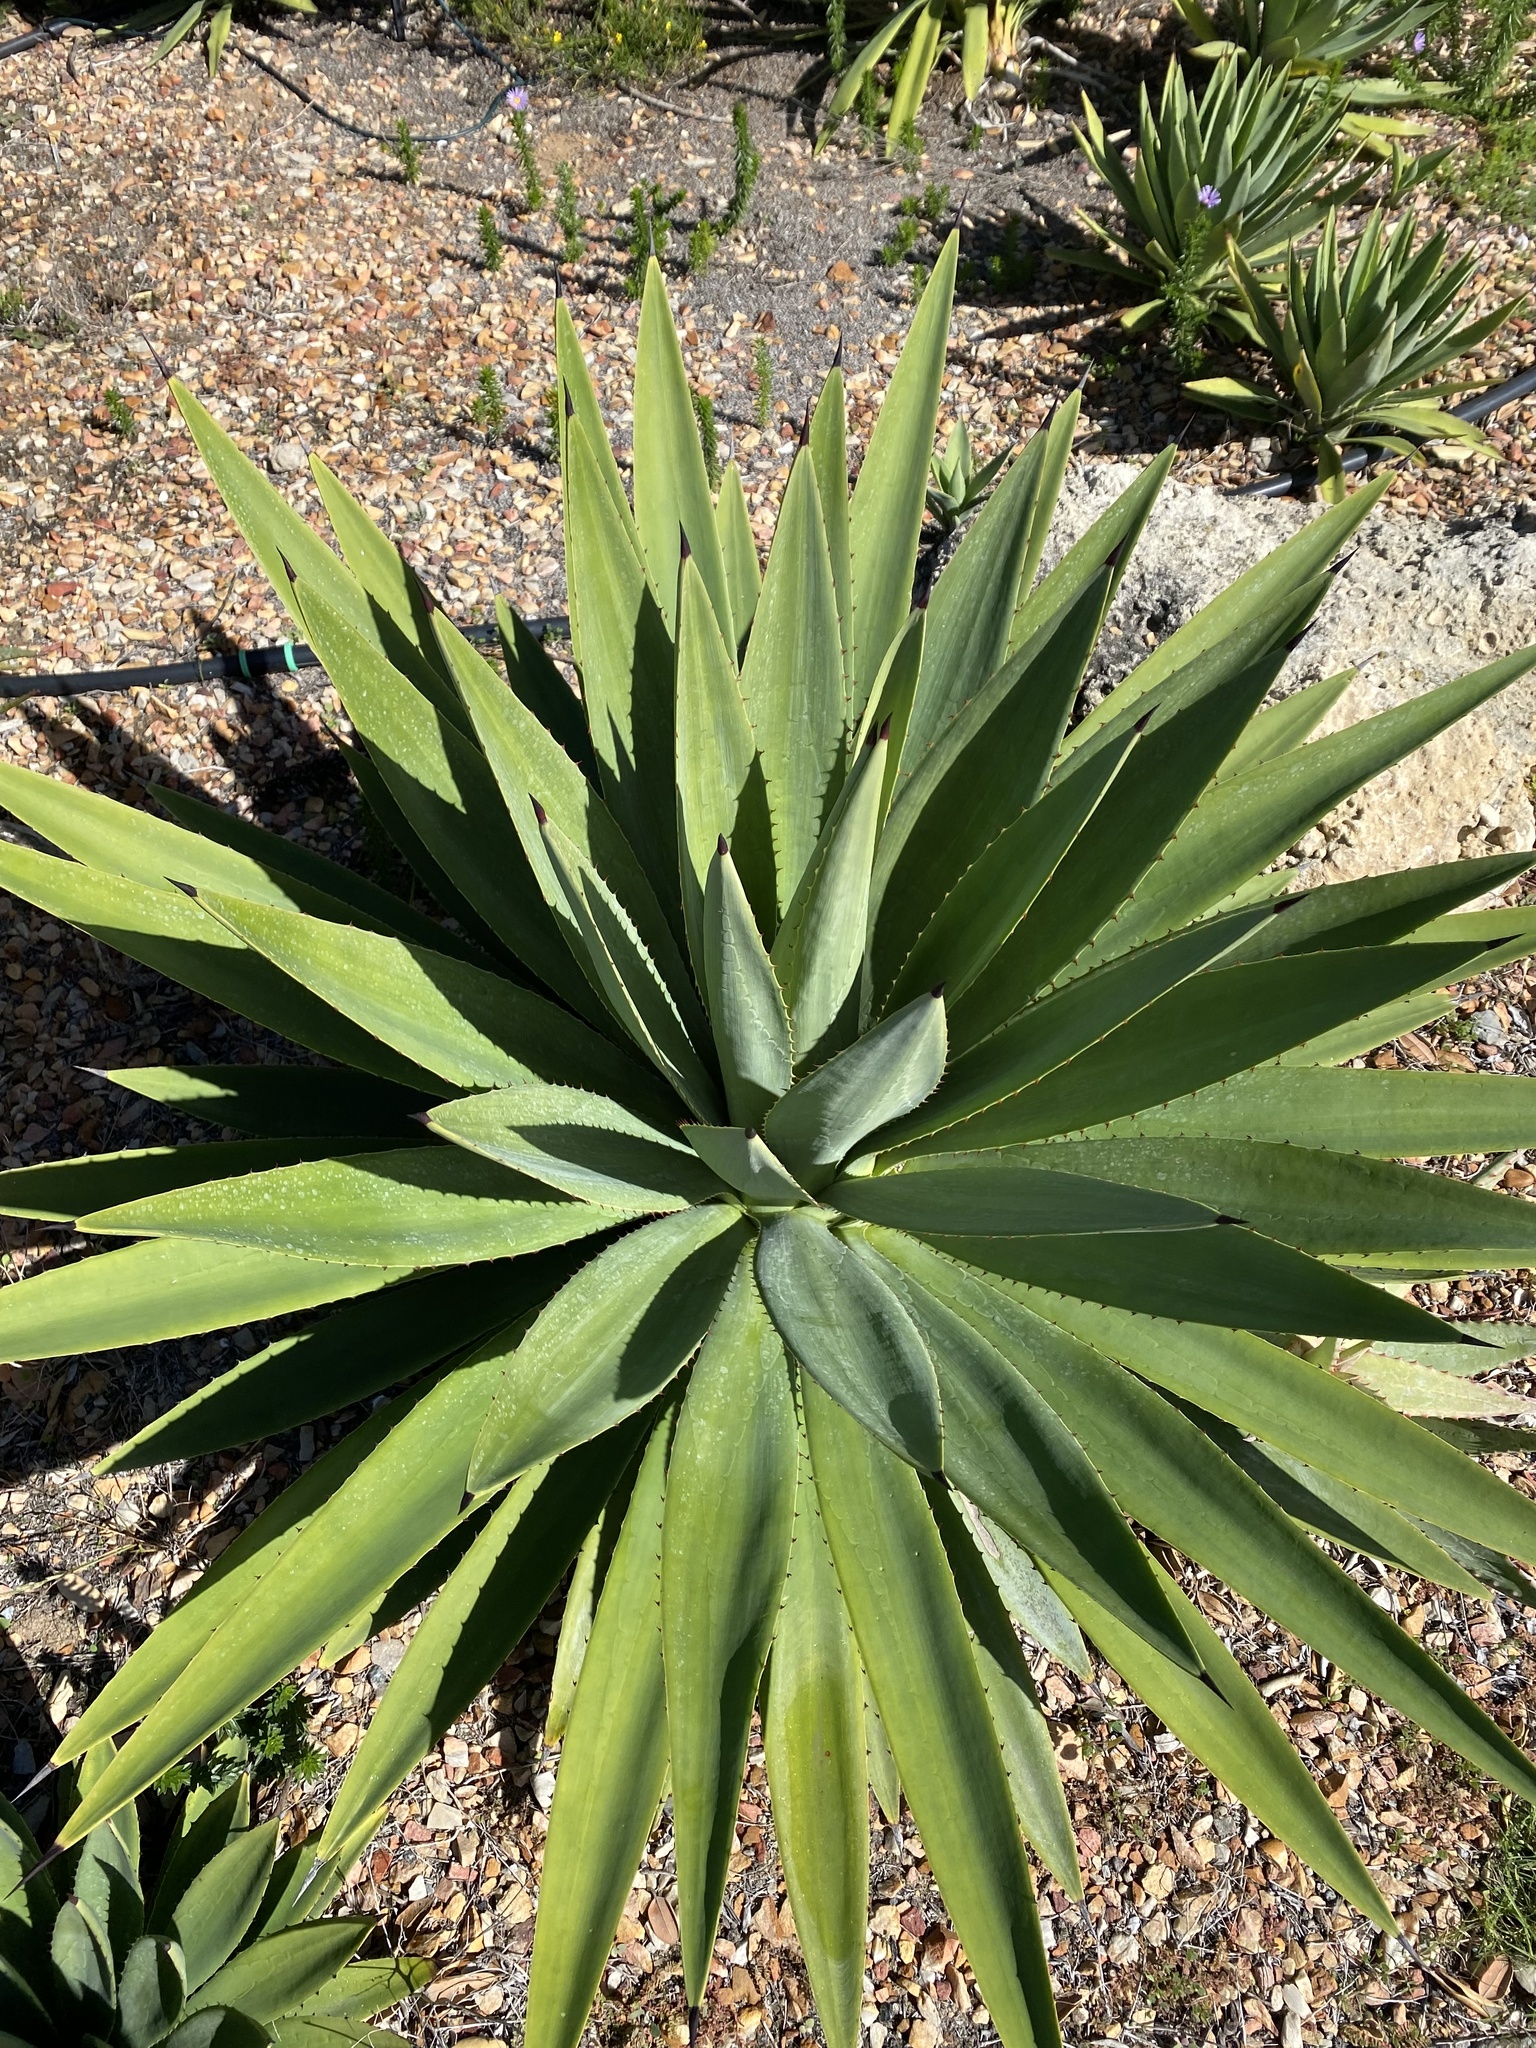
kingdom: Plantae
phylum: Tracheophyta
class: Liliopsida
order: Asparagales
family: Asparagaceae
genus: Agave
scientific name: Agave angustifolia
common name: Mescal agave
